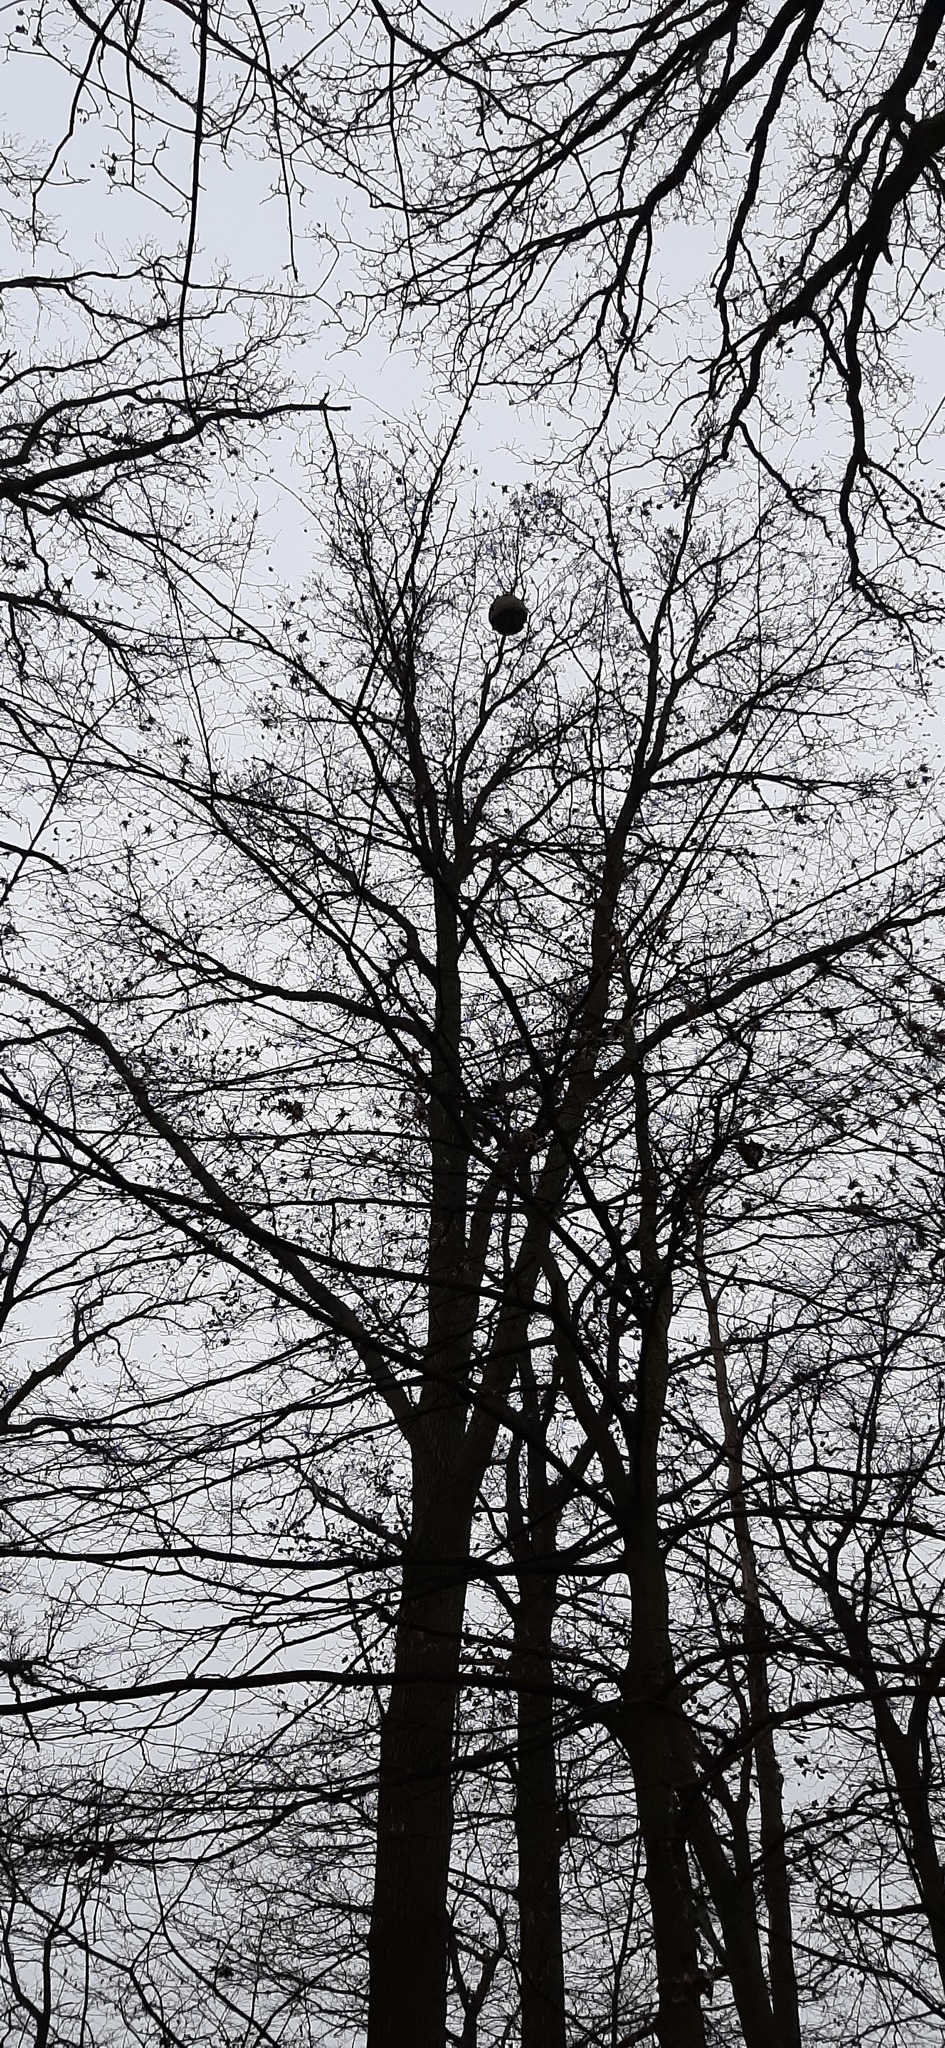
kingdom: Animalia
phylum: Arthropoda
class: Insecta
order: Hymenoptera
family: Vespidae
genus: Vespa
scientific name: Vespa velutina
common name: Asian hornet
